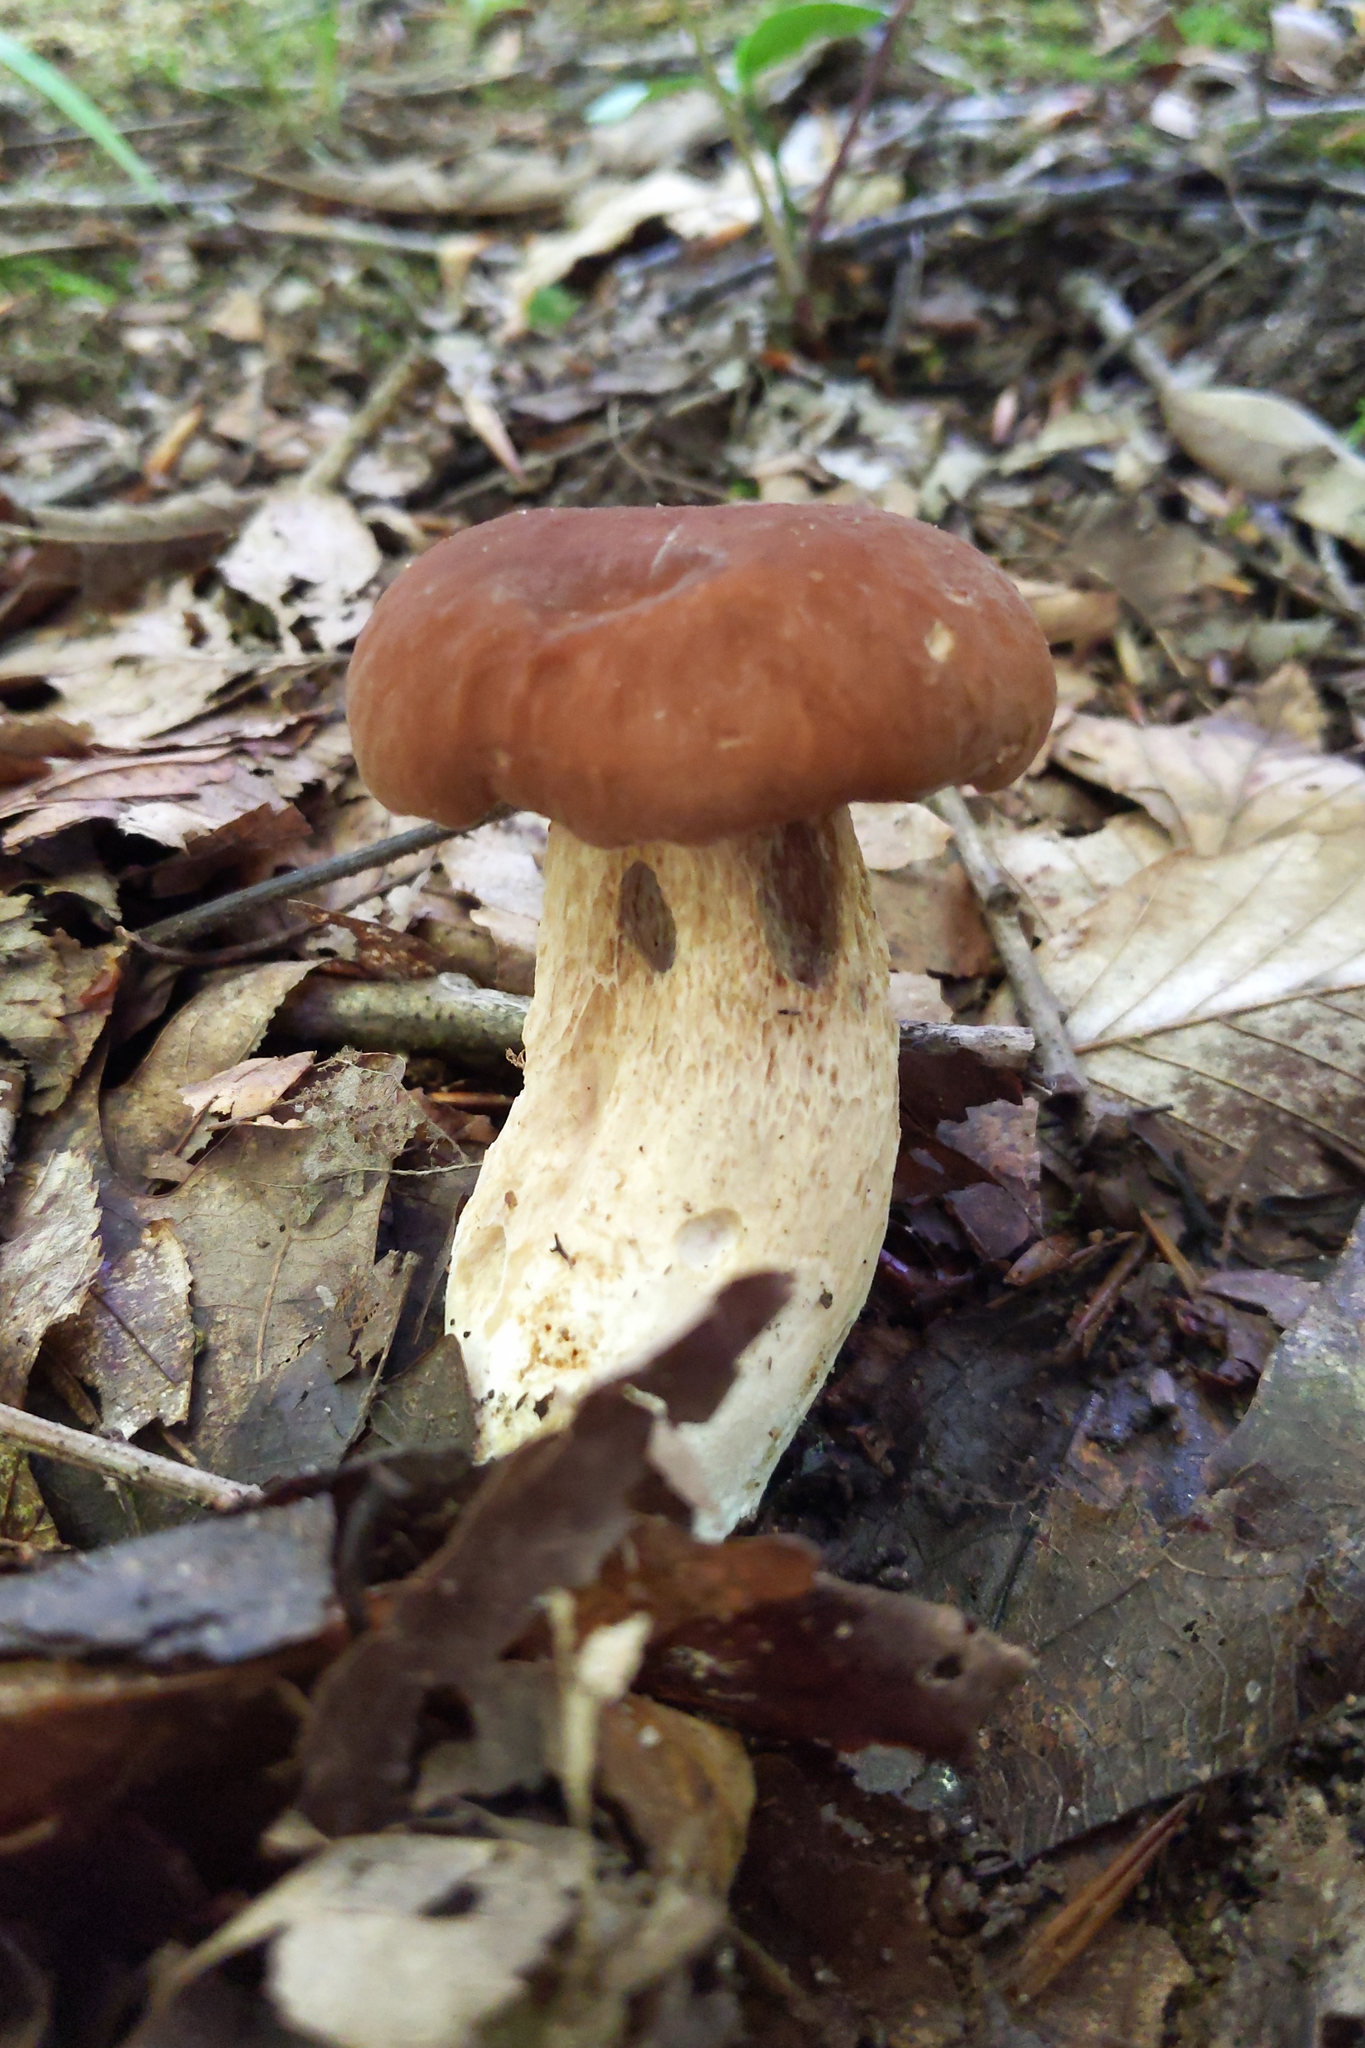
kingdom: Fungi
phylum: Basidiomycota
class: Agaricomycetes
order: Boletales
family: Boletaceae
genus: Boletus
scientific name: Boletus edulis
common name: Cep
